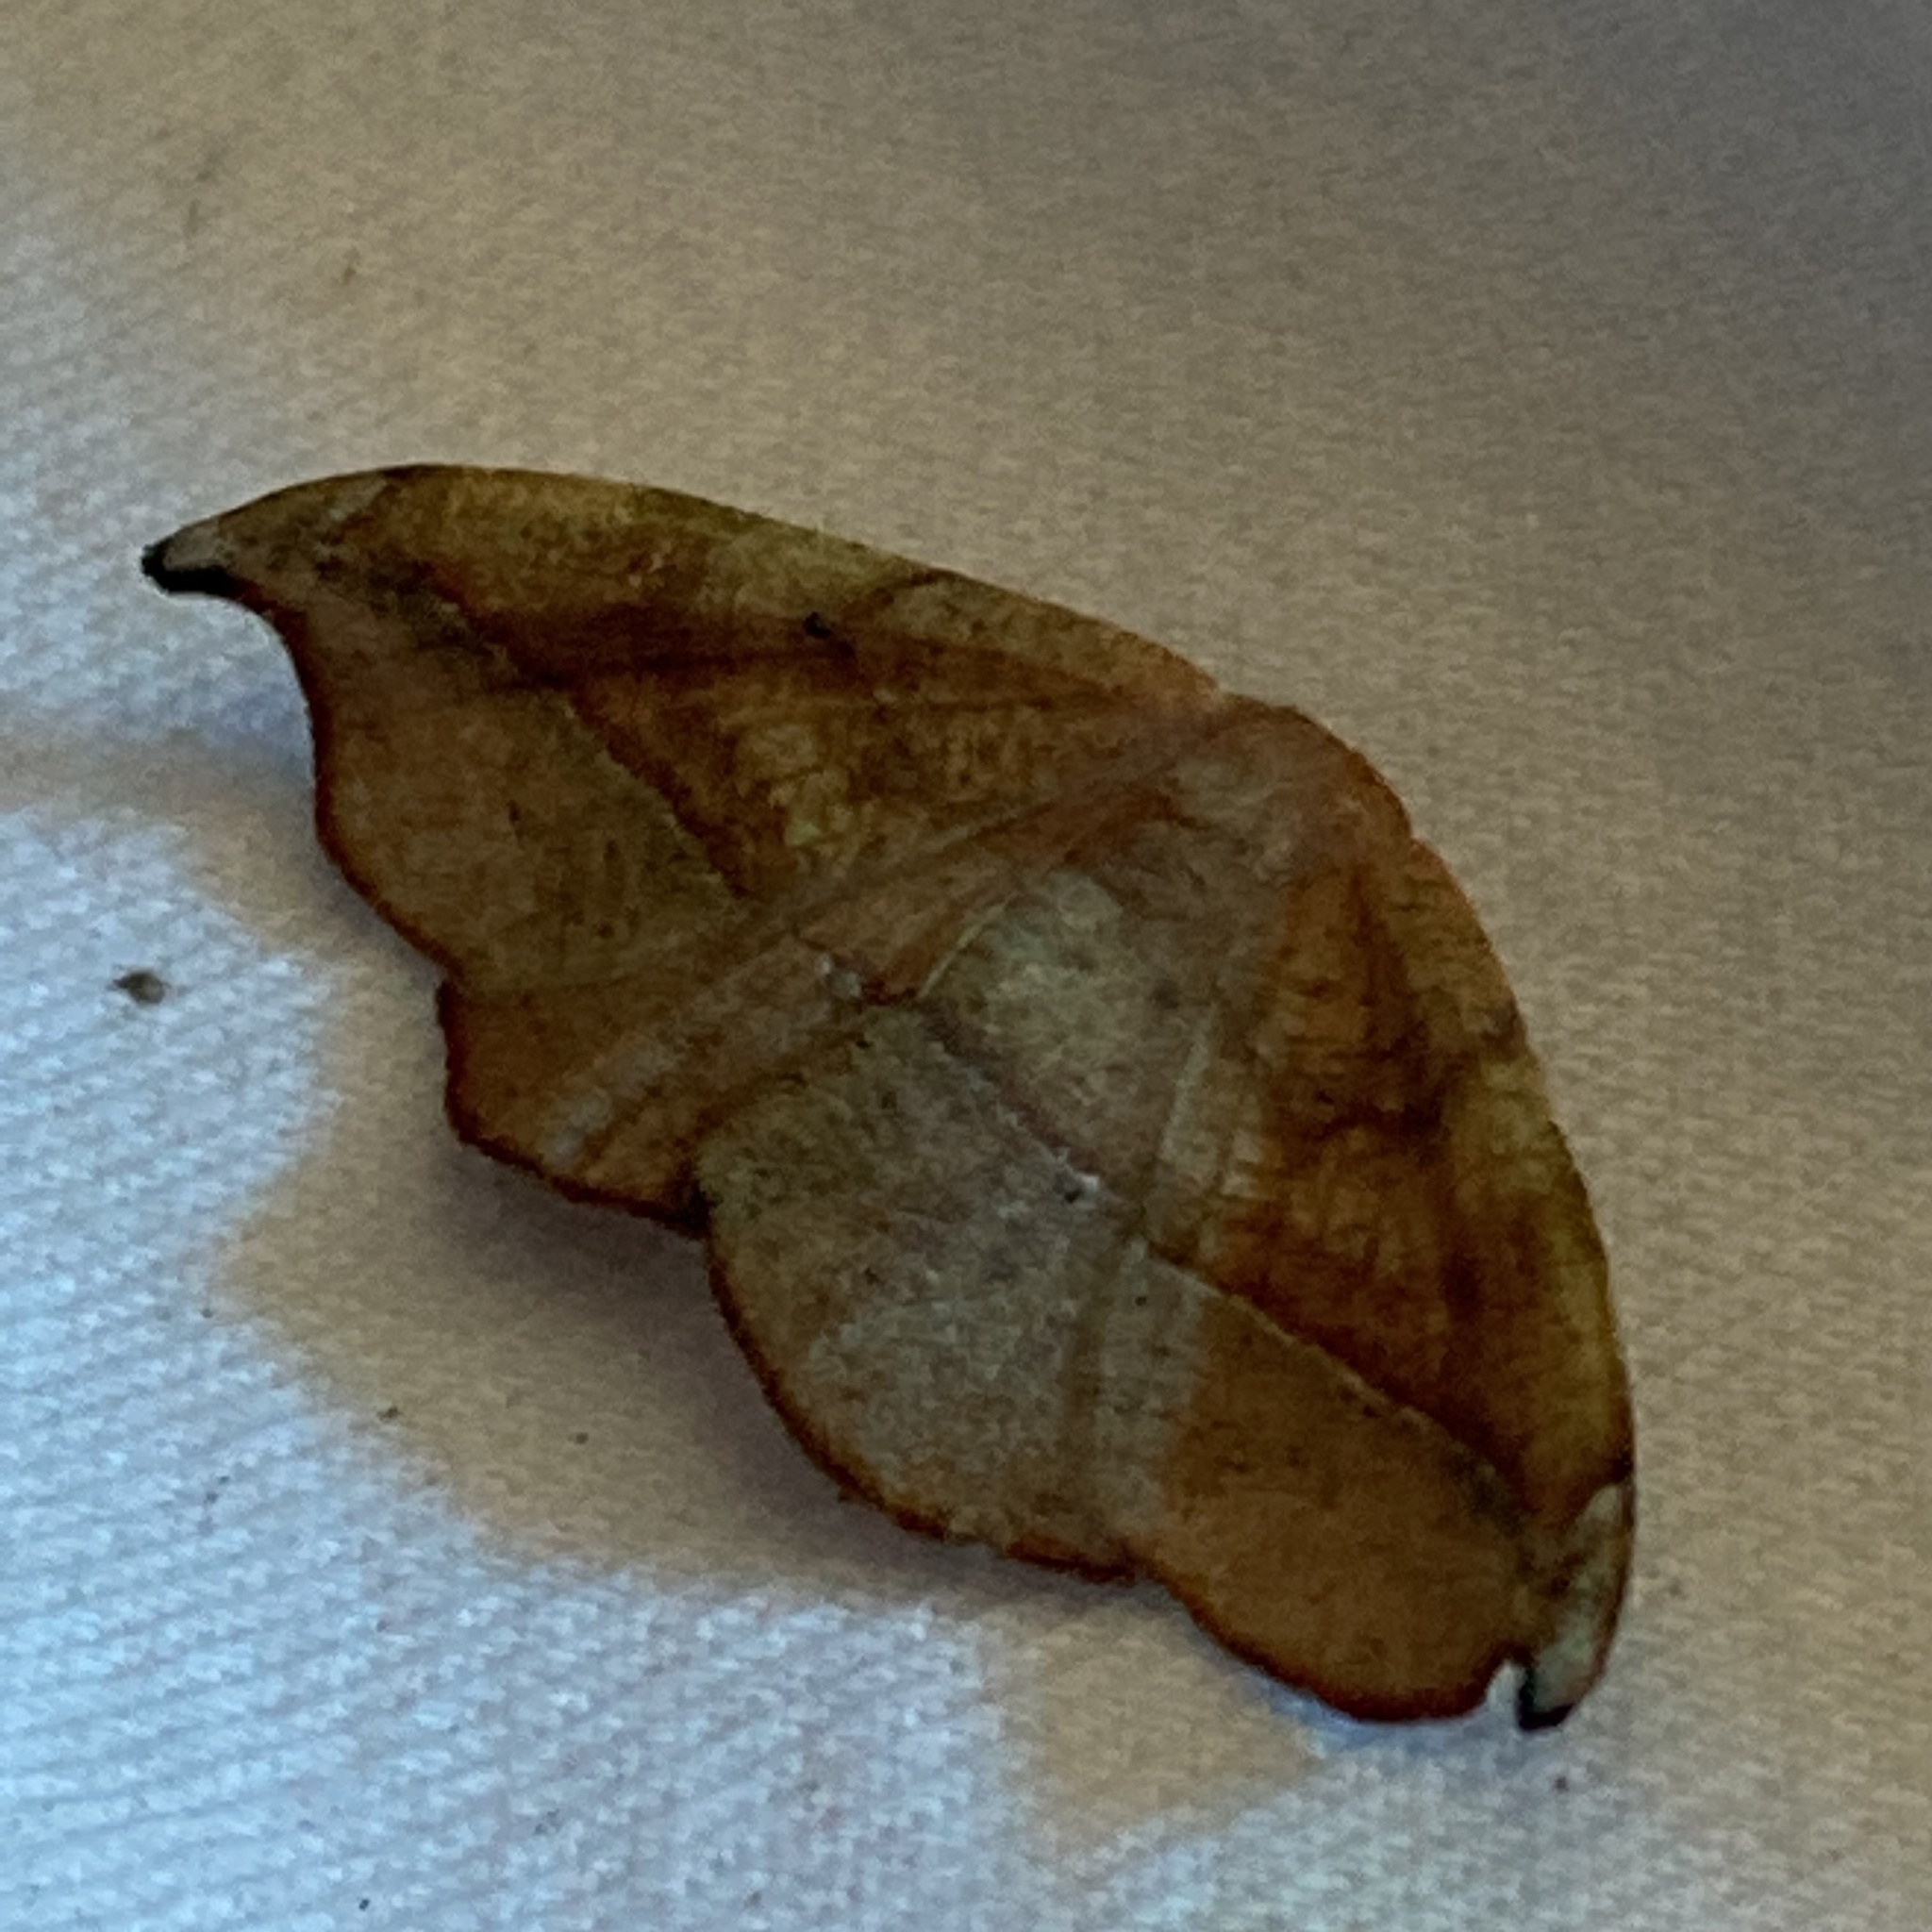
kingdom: Animalia
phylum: Arthropoda
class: Insecta
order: Lepidoptera
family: Geometridae
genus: Patalene
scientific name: Patalene olyzonaria
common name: Juniper geometer moth
